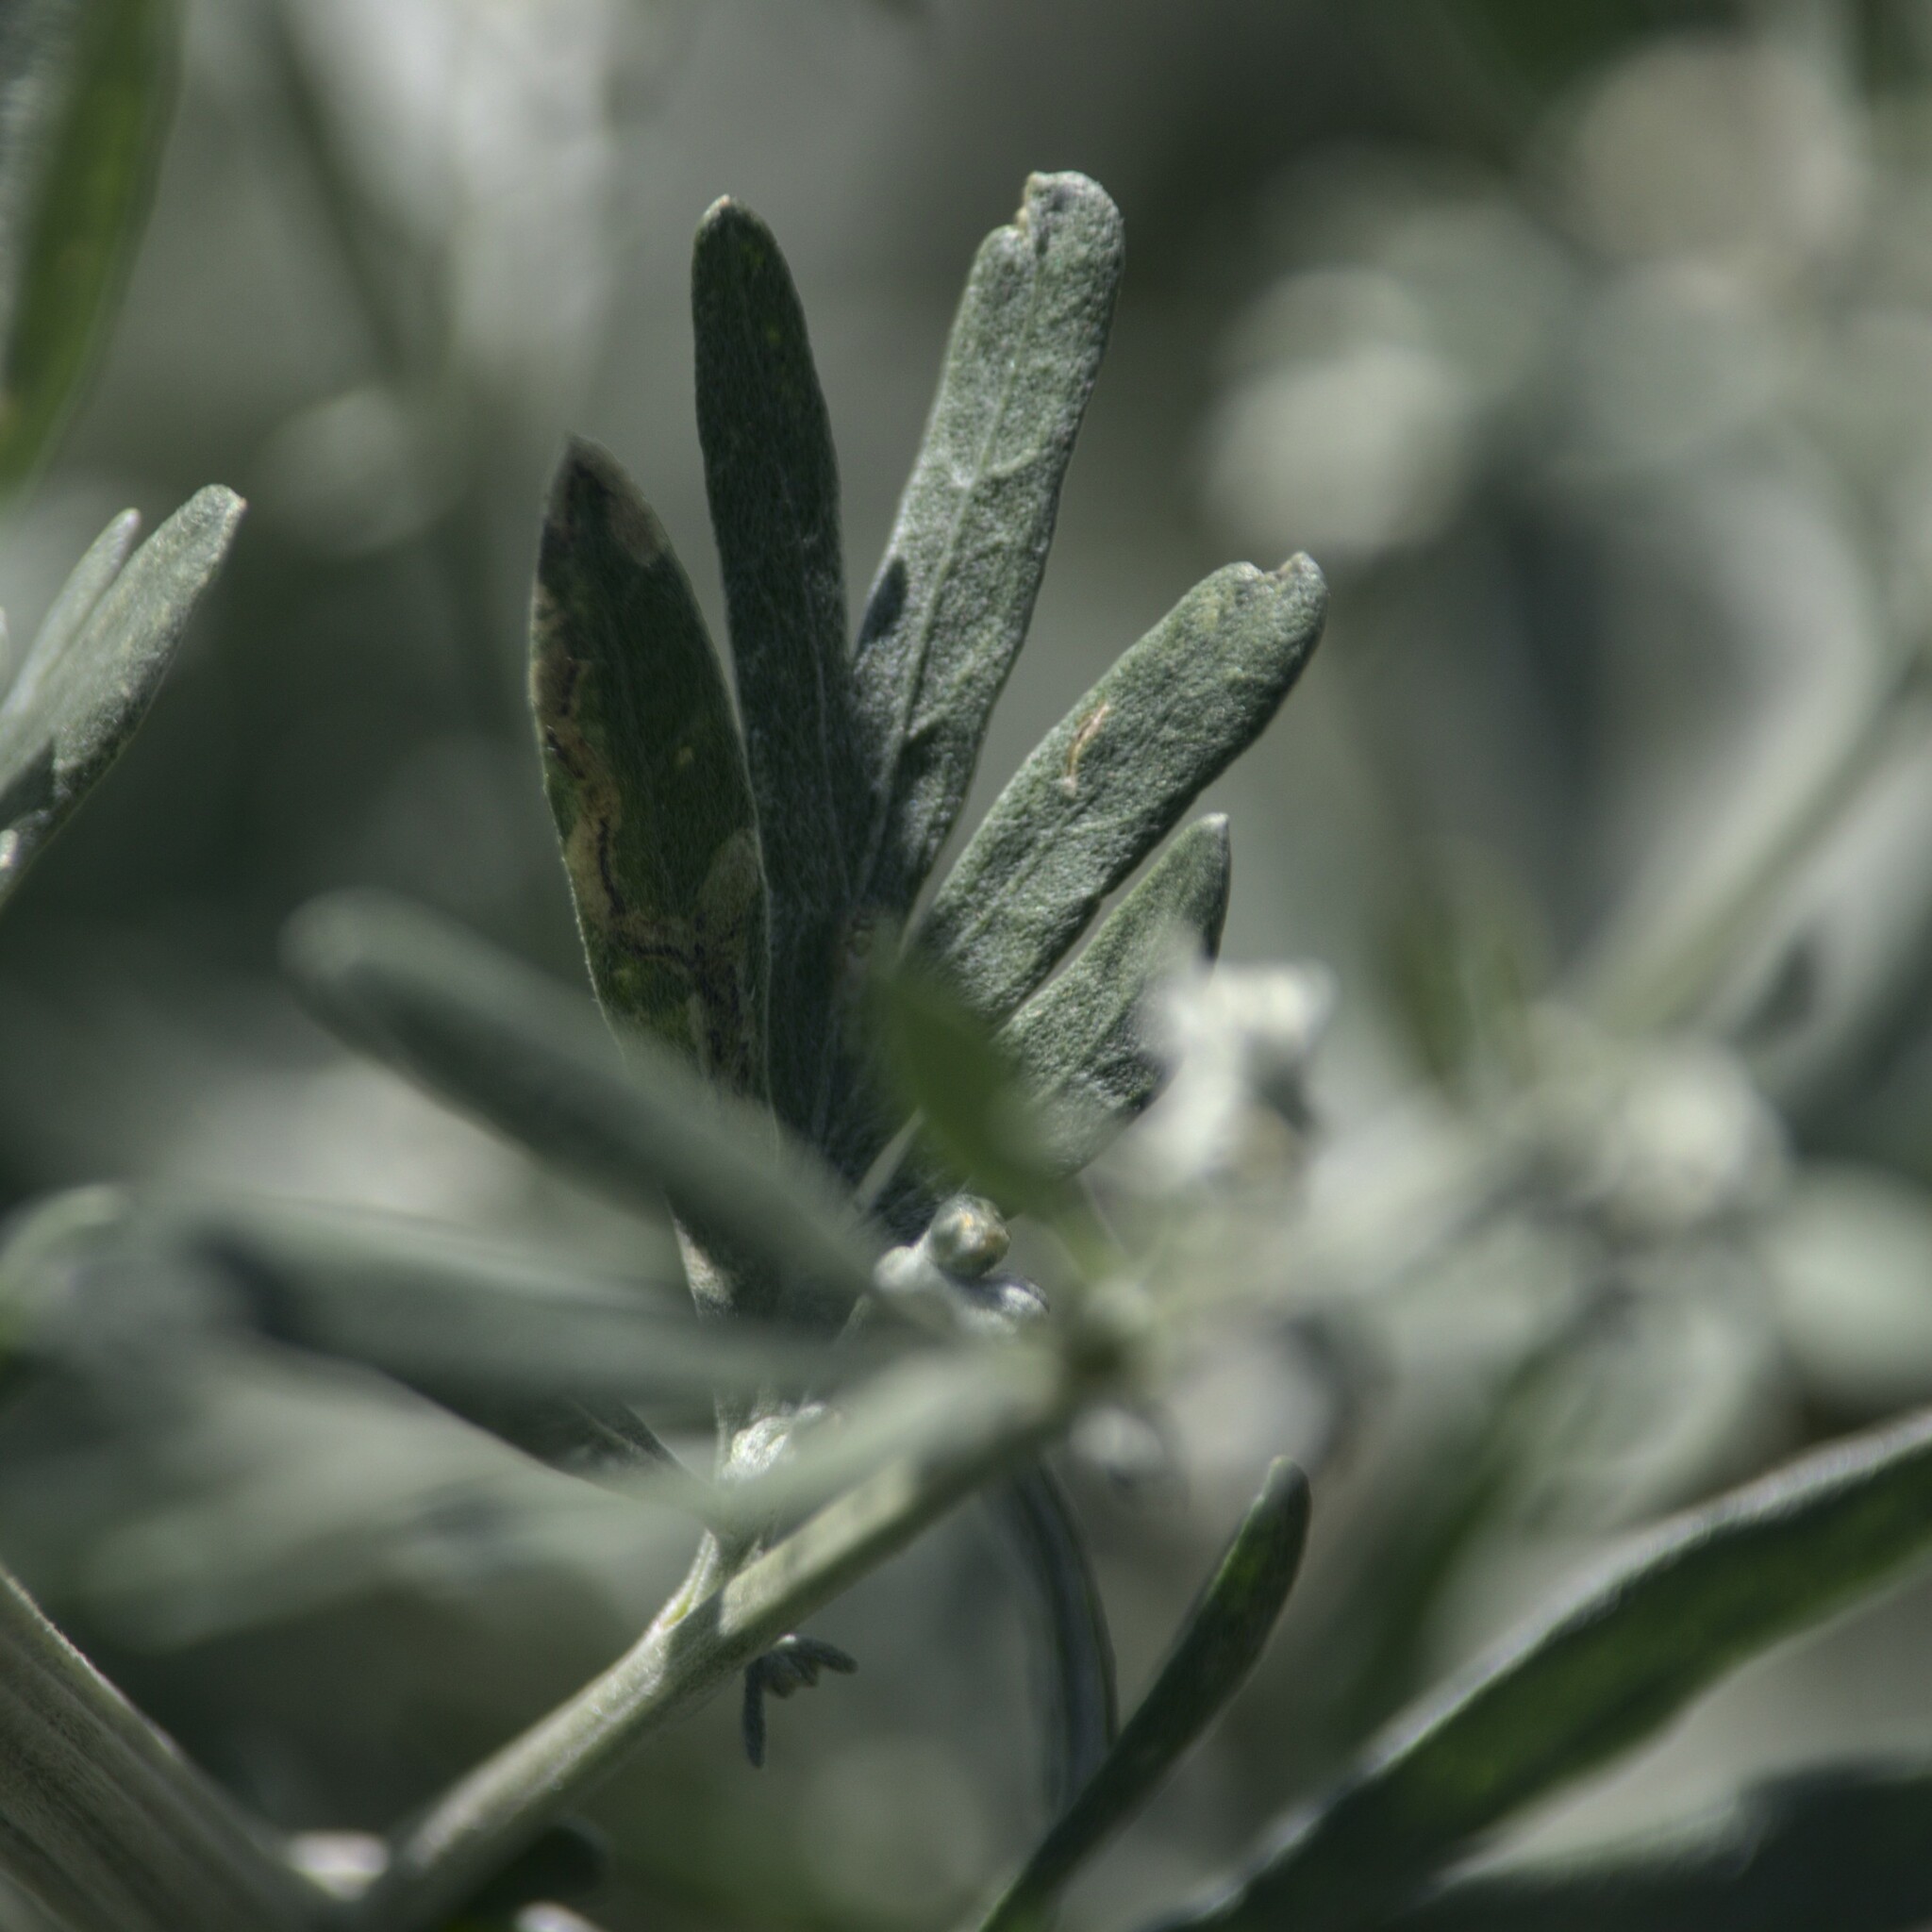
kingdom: Plantae
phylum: Tracheophyta
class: Magnoliopsida
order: Asterales
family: Asteraceae
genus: Artemisia
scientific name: Artemisia absinthium
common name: Wormwood
